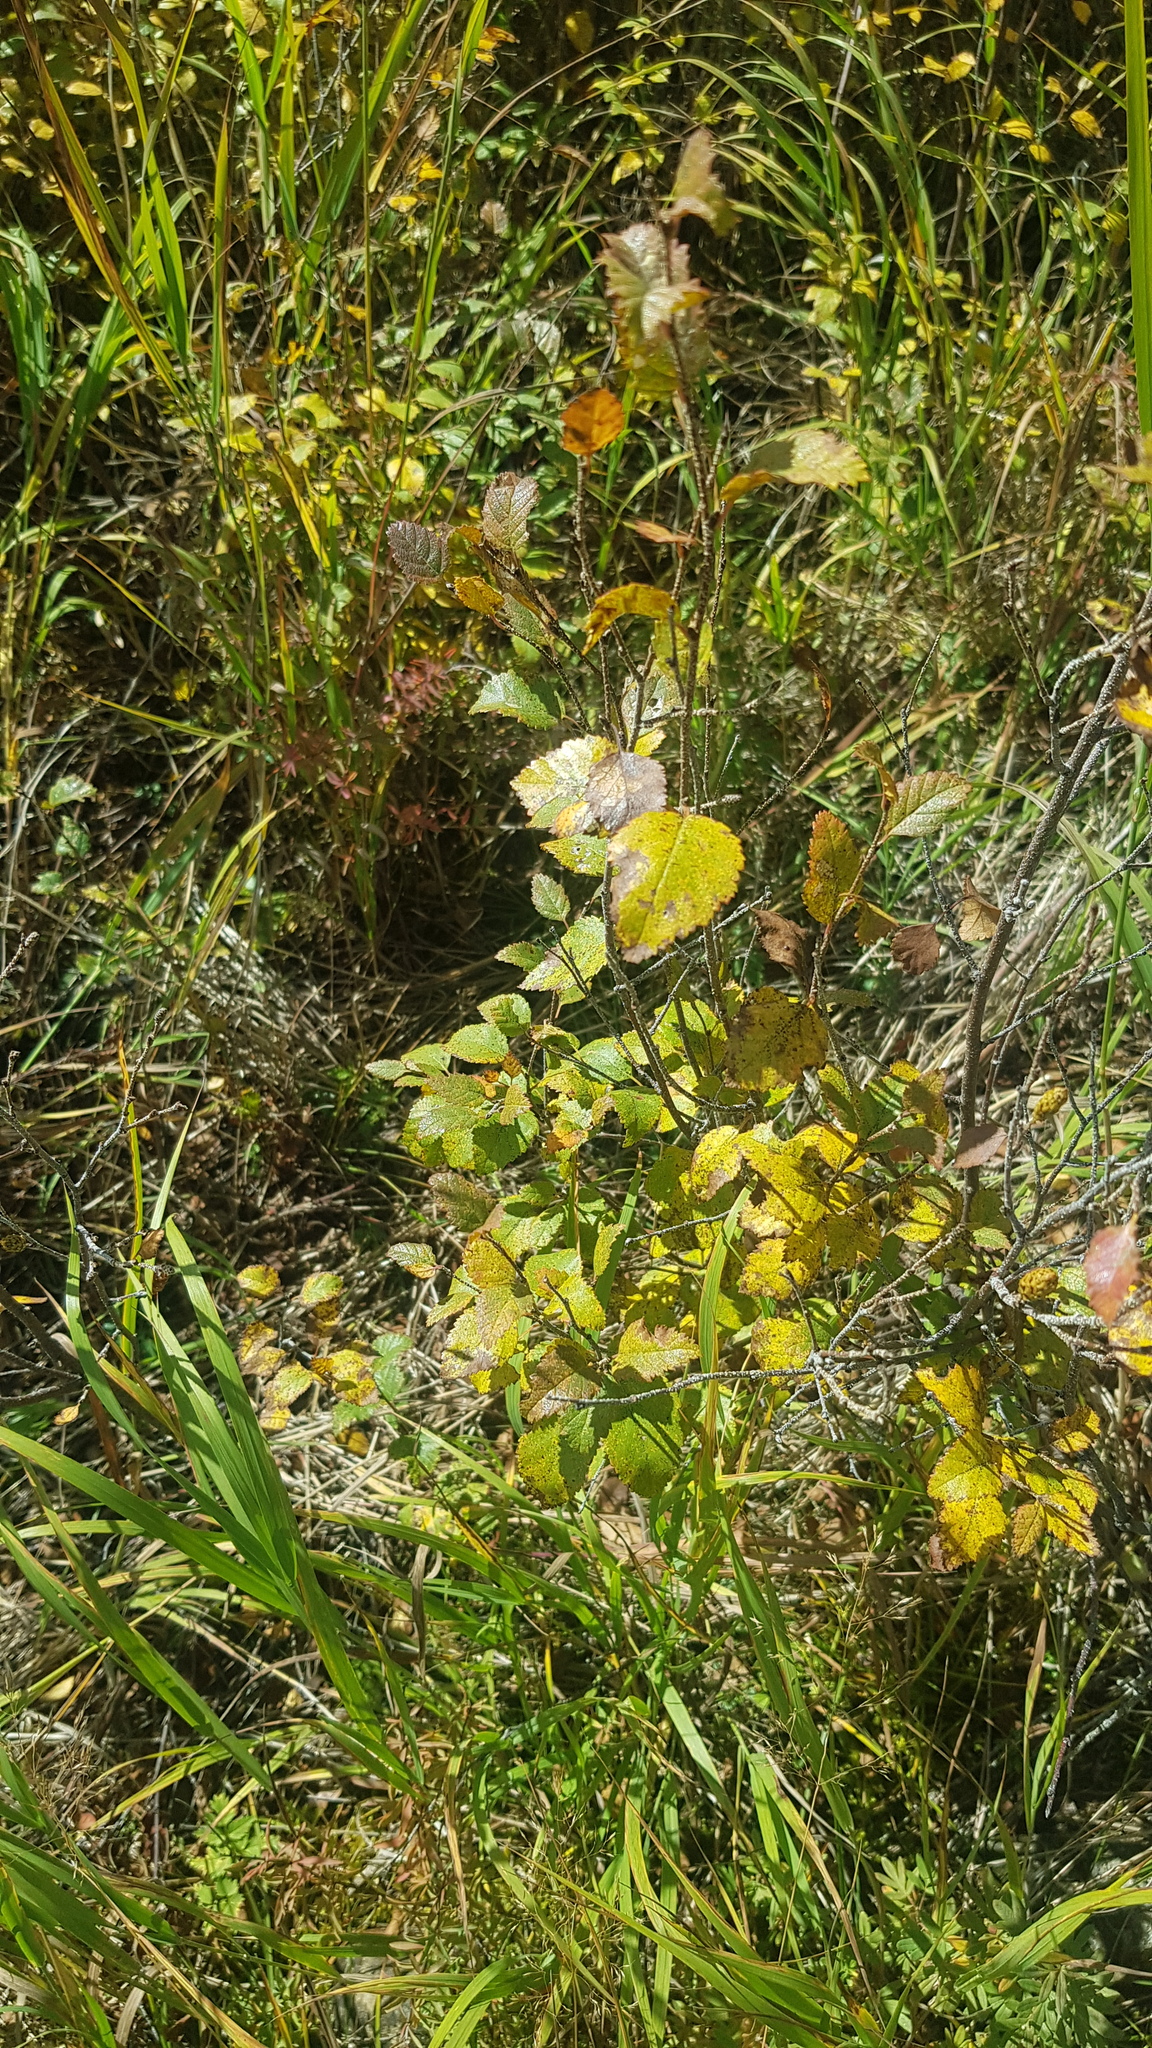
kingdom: Plantae
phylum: Tracheophyta
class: Magnoliopsida
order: Fagales
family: Betulaceae
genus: Betula
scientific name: Betula fruticosa
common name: Japanese bog birch
